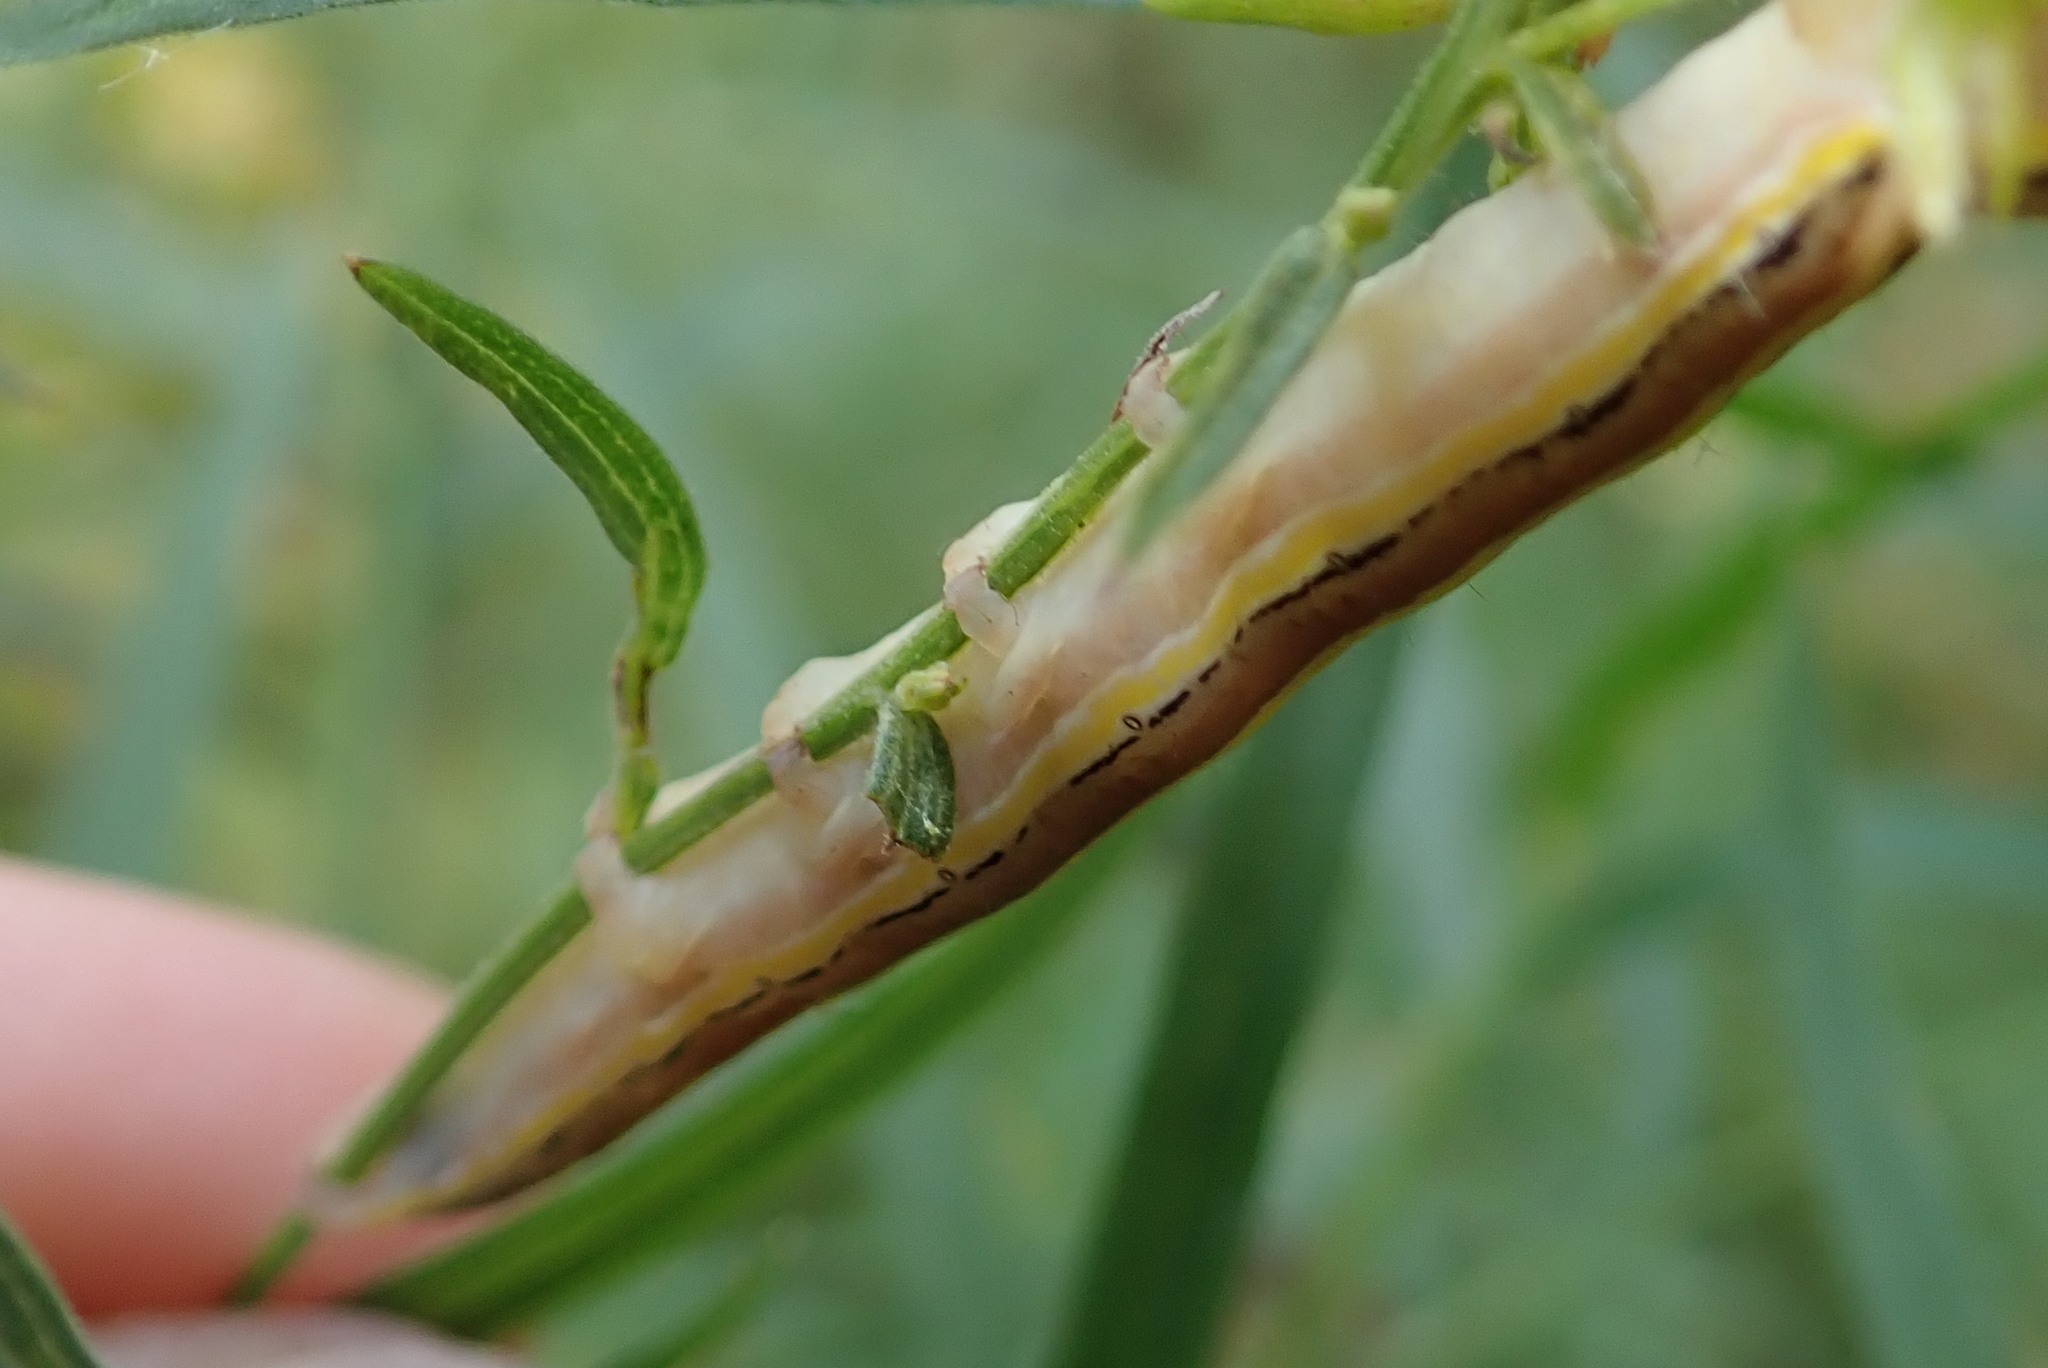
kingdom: Animalia
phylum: Arthropoda
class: Insecta
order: Lepidoptera
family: Noctuidae
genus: Trichordestra
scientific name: Trichordestra legitima
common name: Striped garden caterpillar
